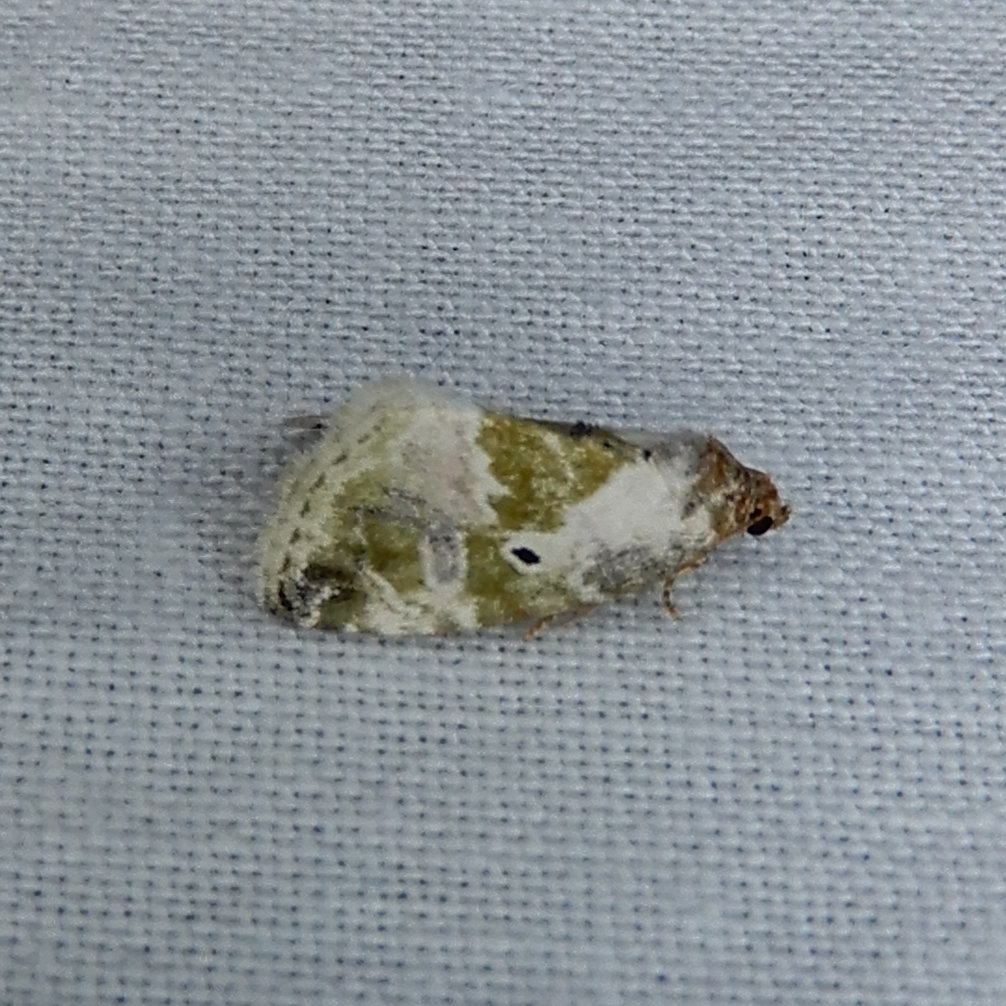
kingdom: Animalia
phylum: Arthropoda
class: Insecta
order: Lepidoptera
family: Noctuidae
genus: Maliattha
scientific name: Maliattha synochitis
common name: Black-dotted glyph
